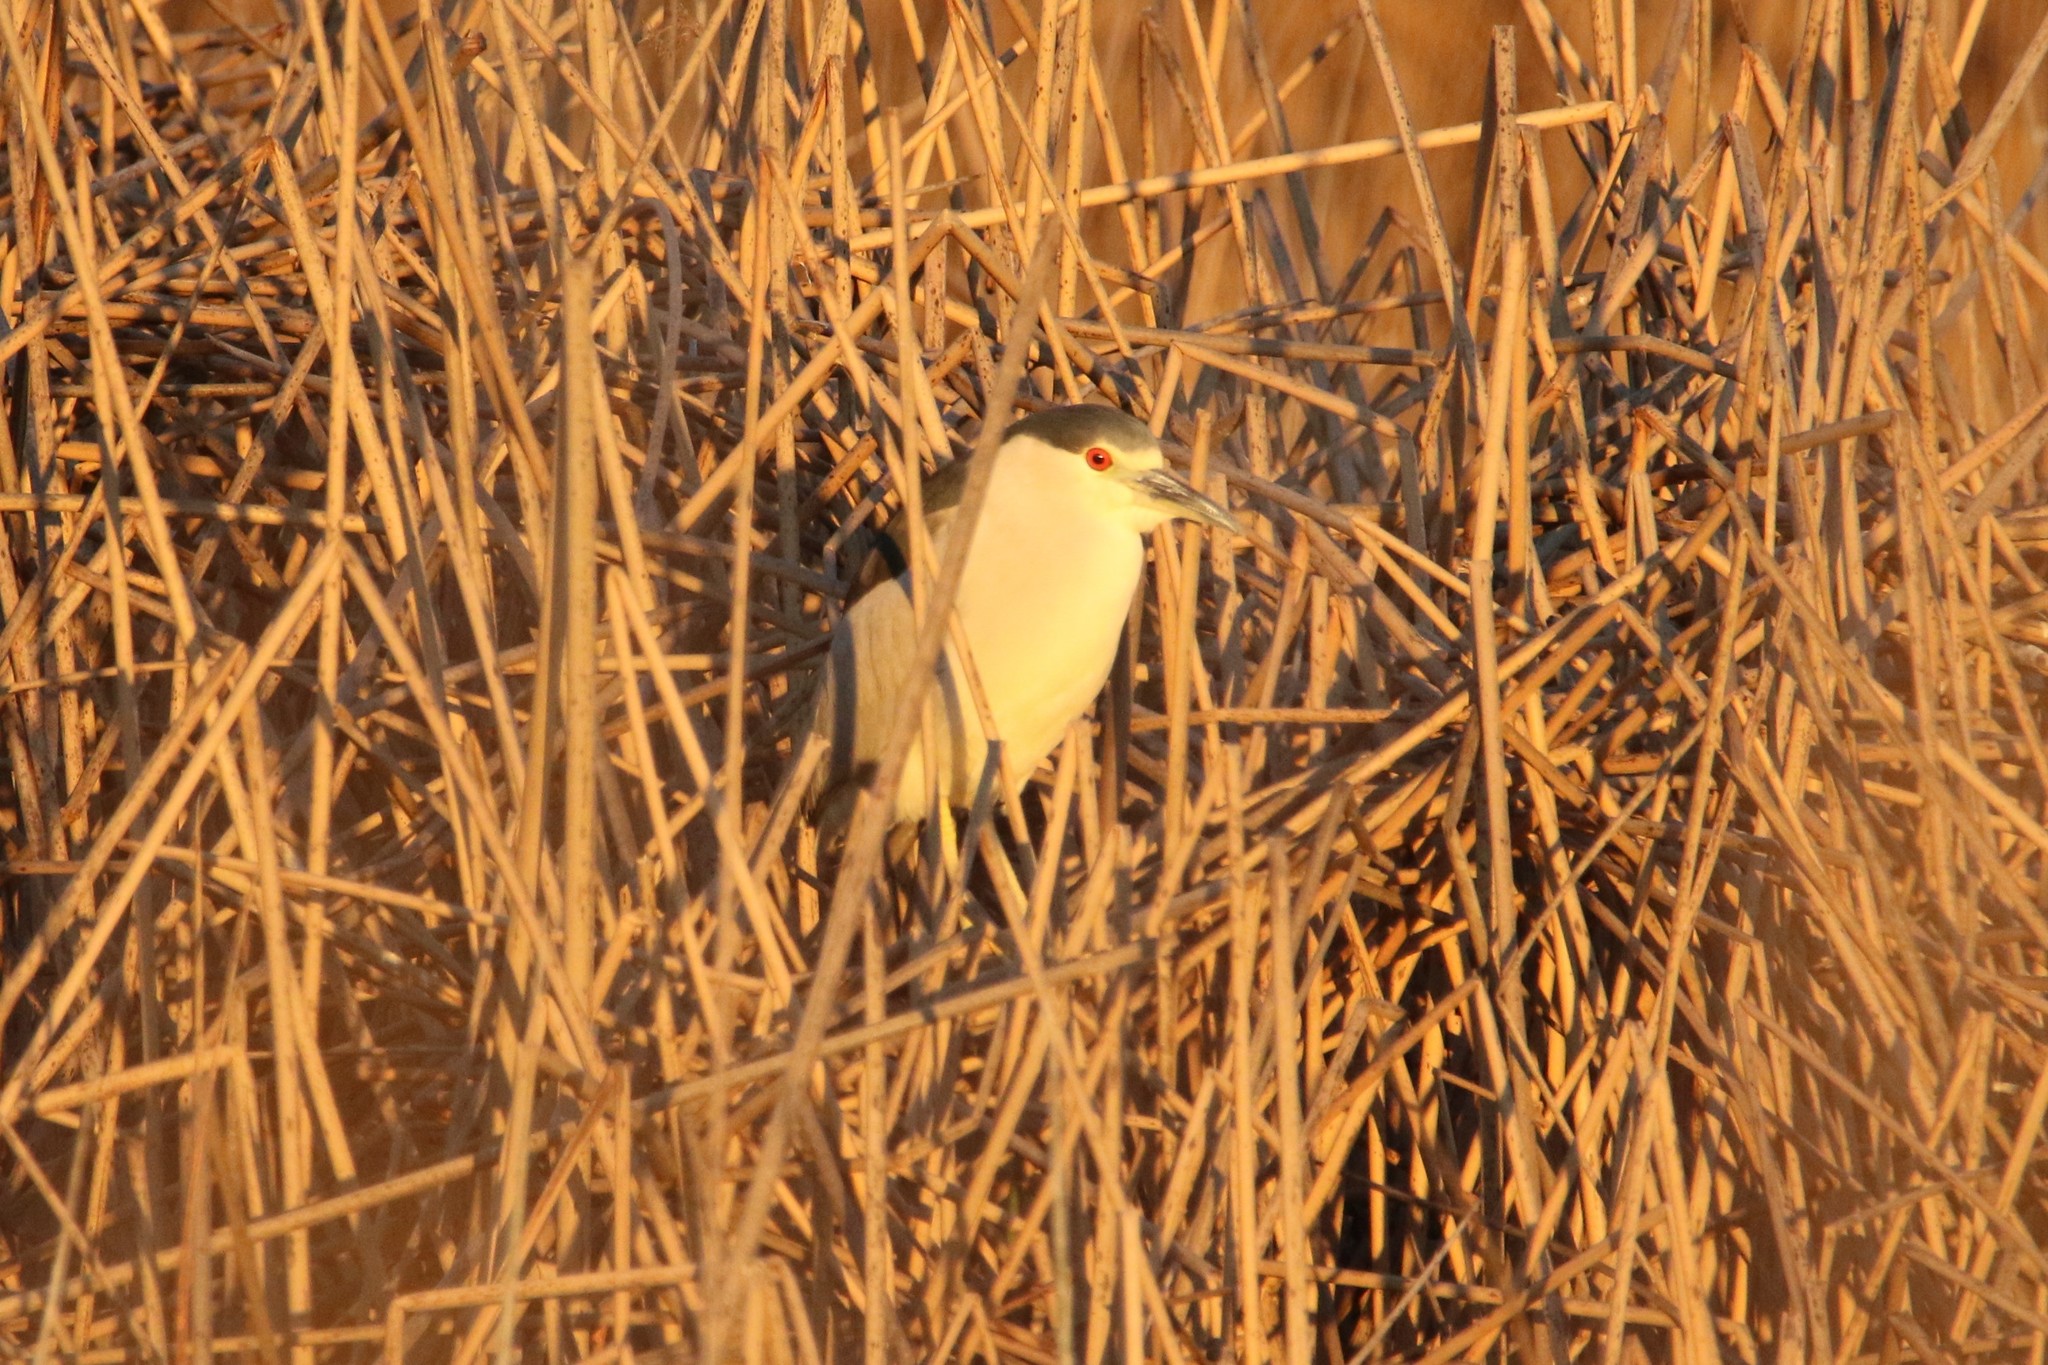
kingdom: Animalia
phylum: Chordata
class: Aves
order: Pelecaniformes
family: Ardeidae
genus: Nycticorax
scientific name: Nycticorax nycticorax
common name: Black-crowned night heron
